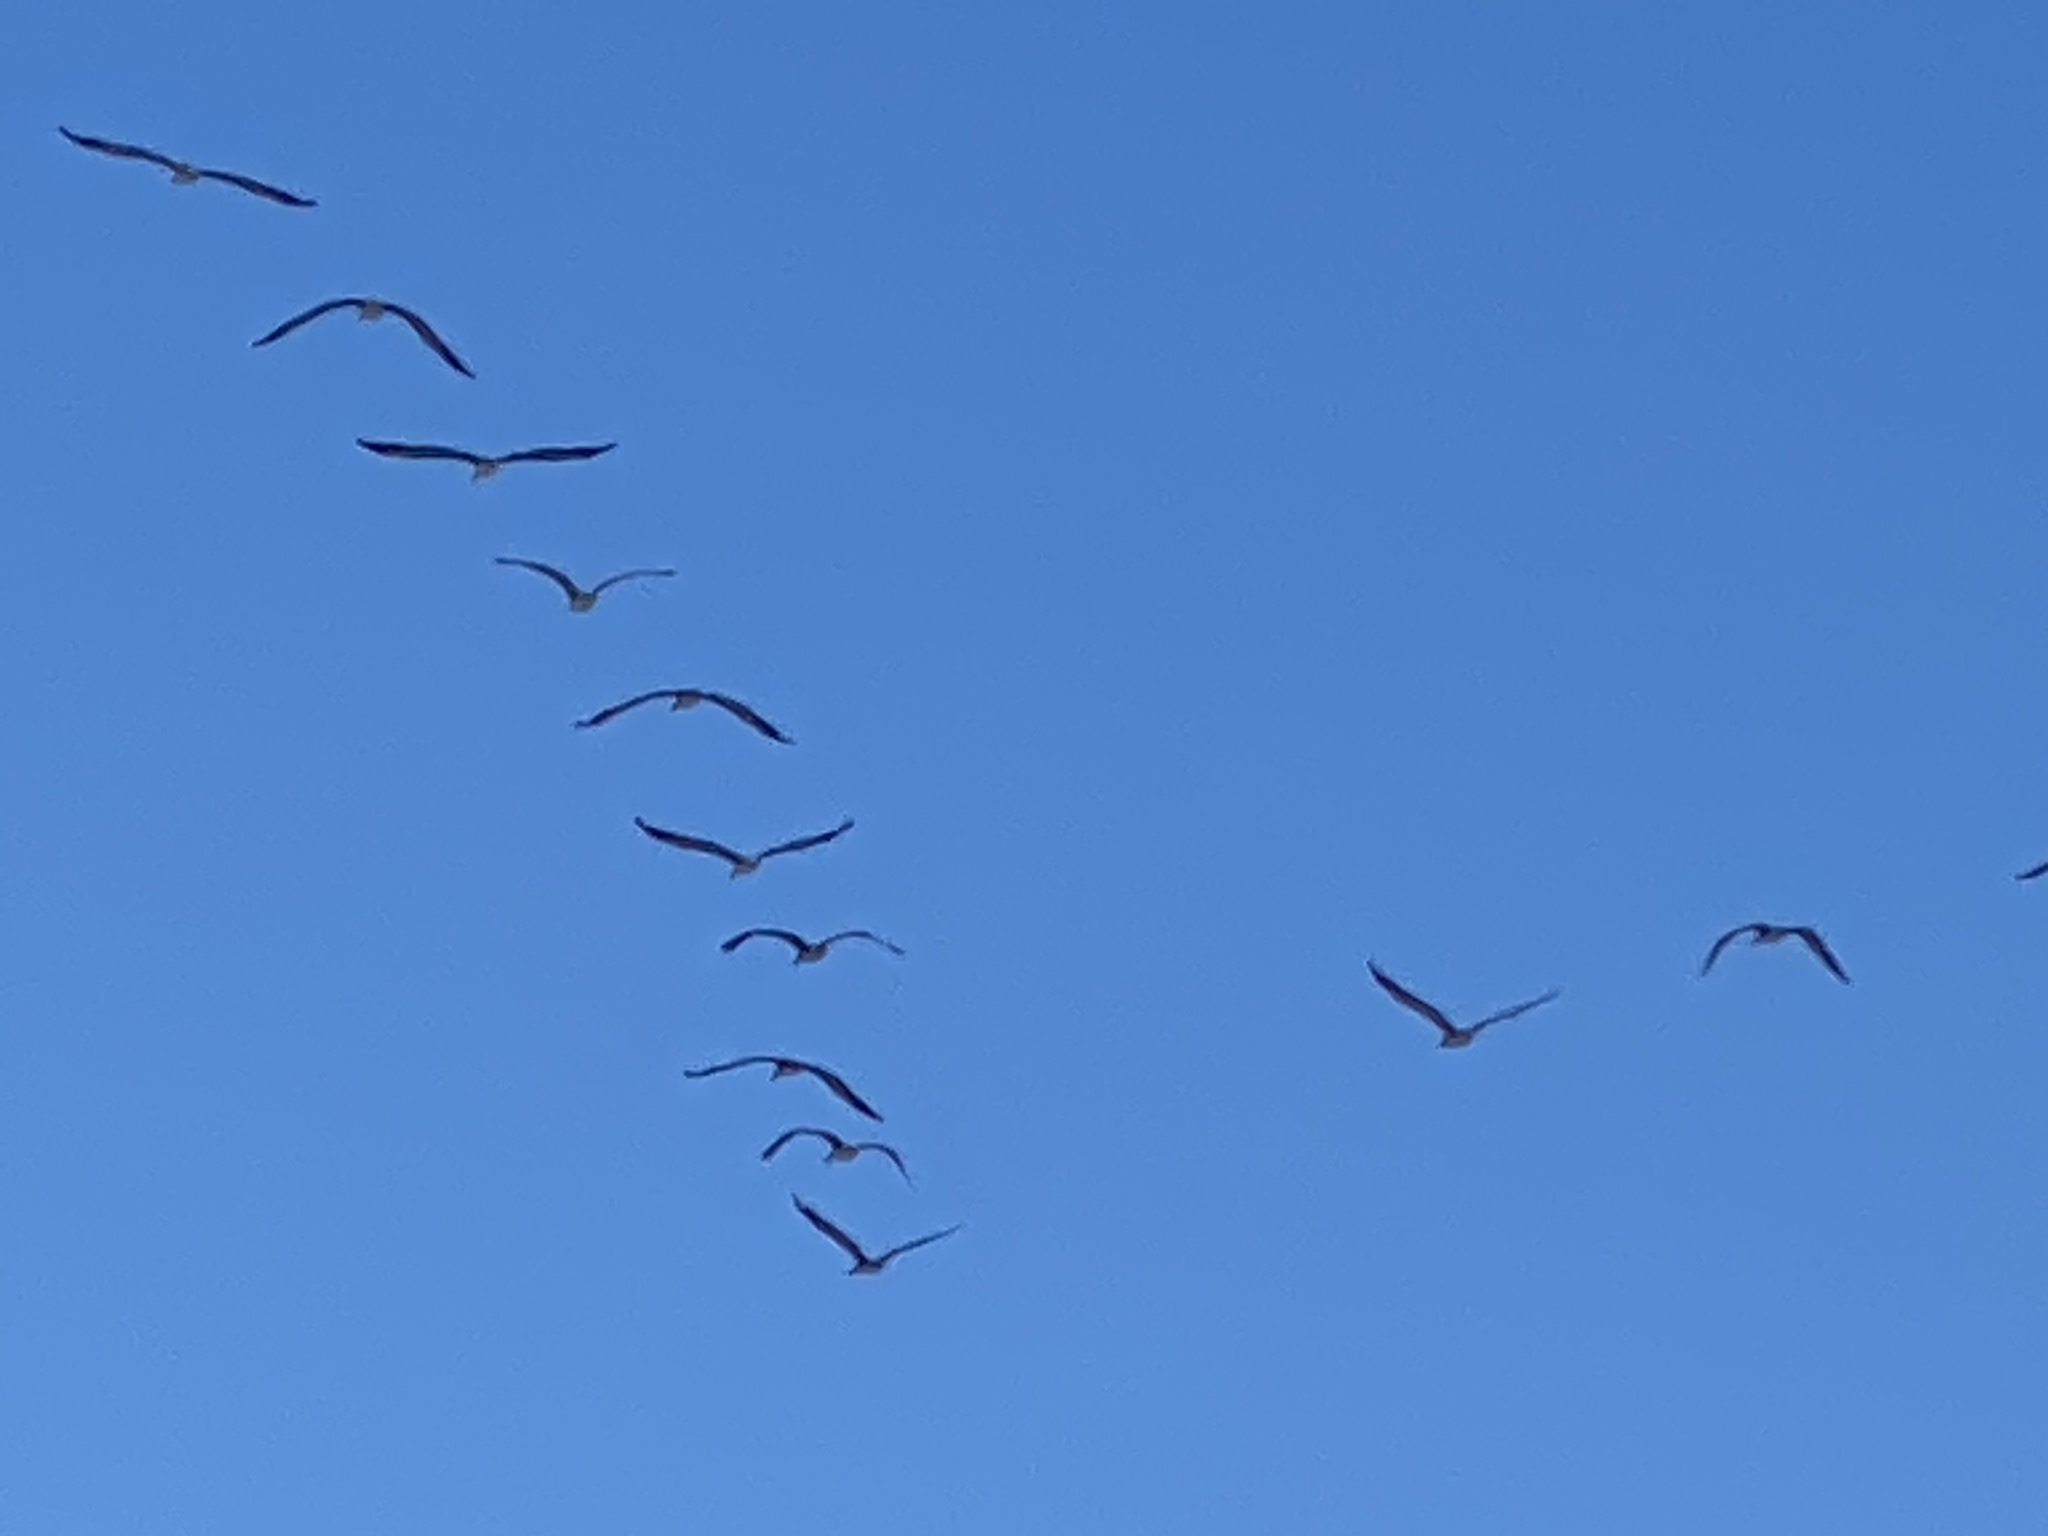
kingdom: Animalia
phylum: Chordata
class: Aves
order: Pelecaniformes
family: Pelecanidae
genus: Pelecanus
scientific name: Pelecanus occidentalis
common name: Brown pelican
